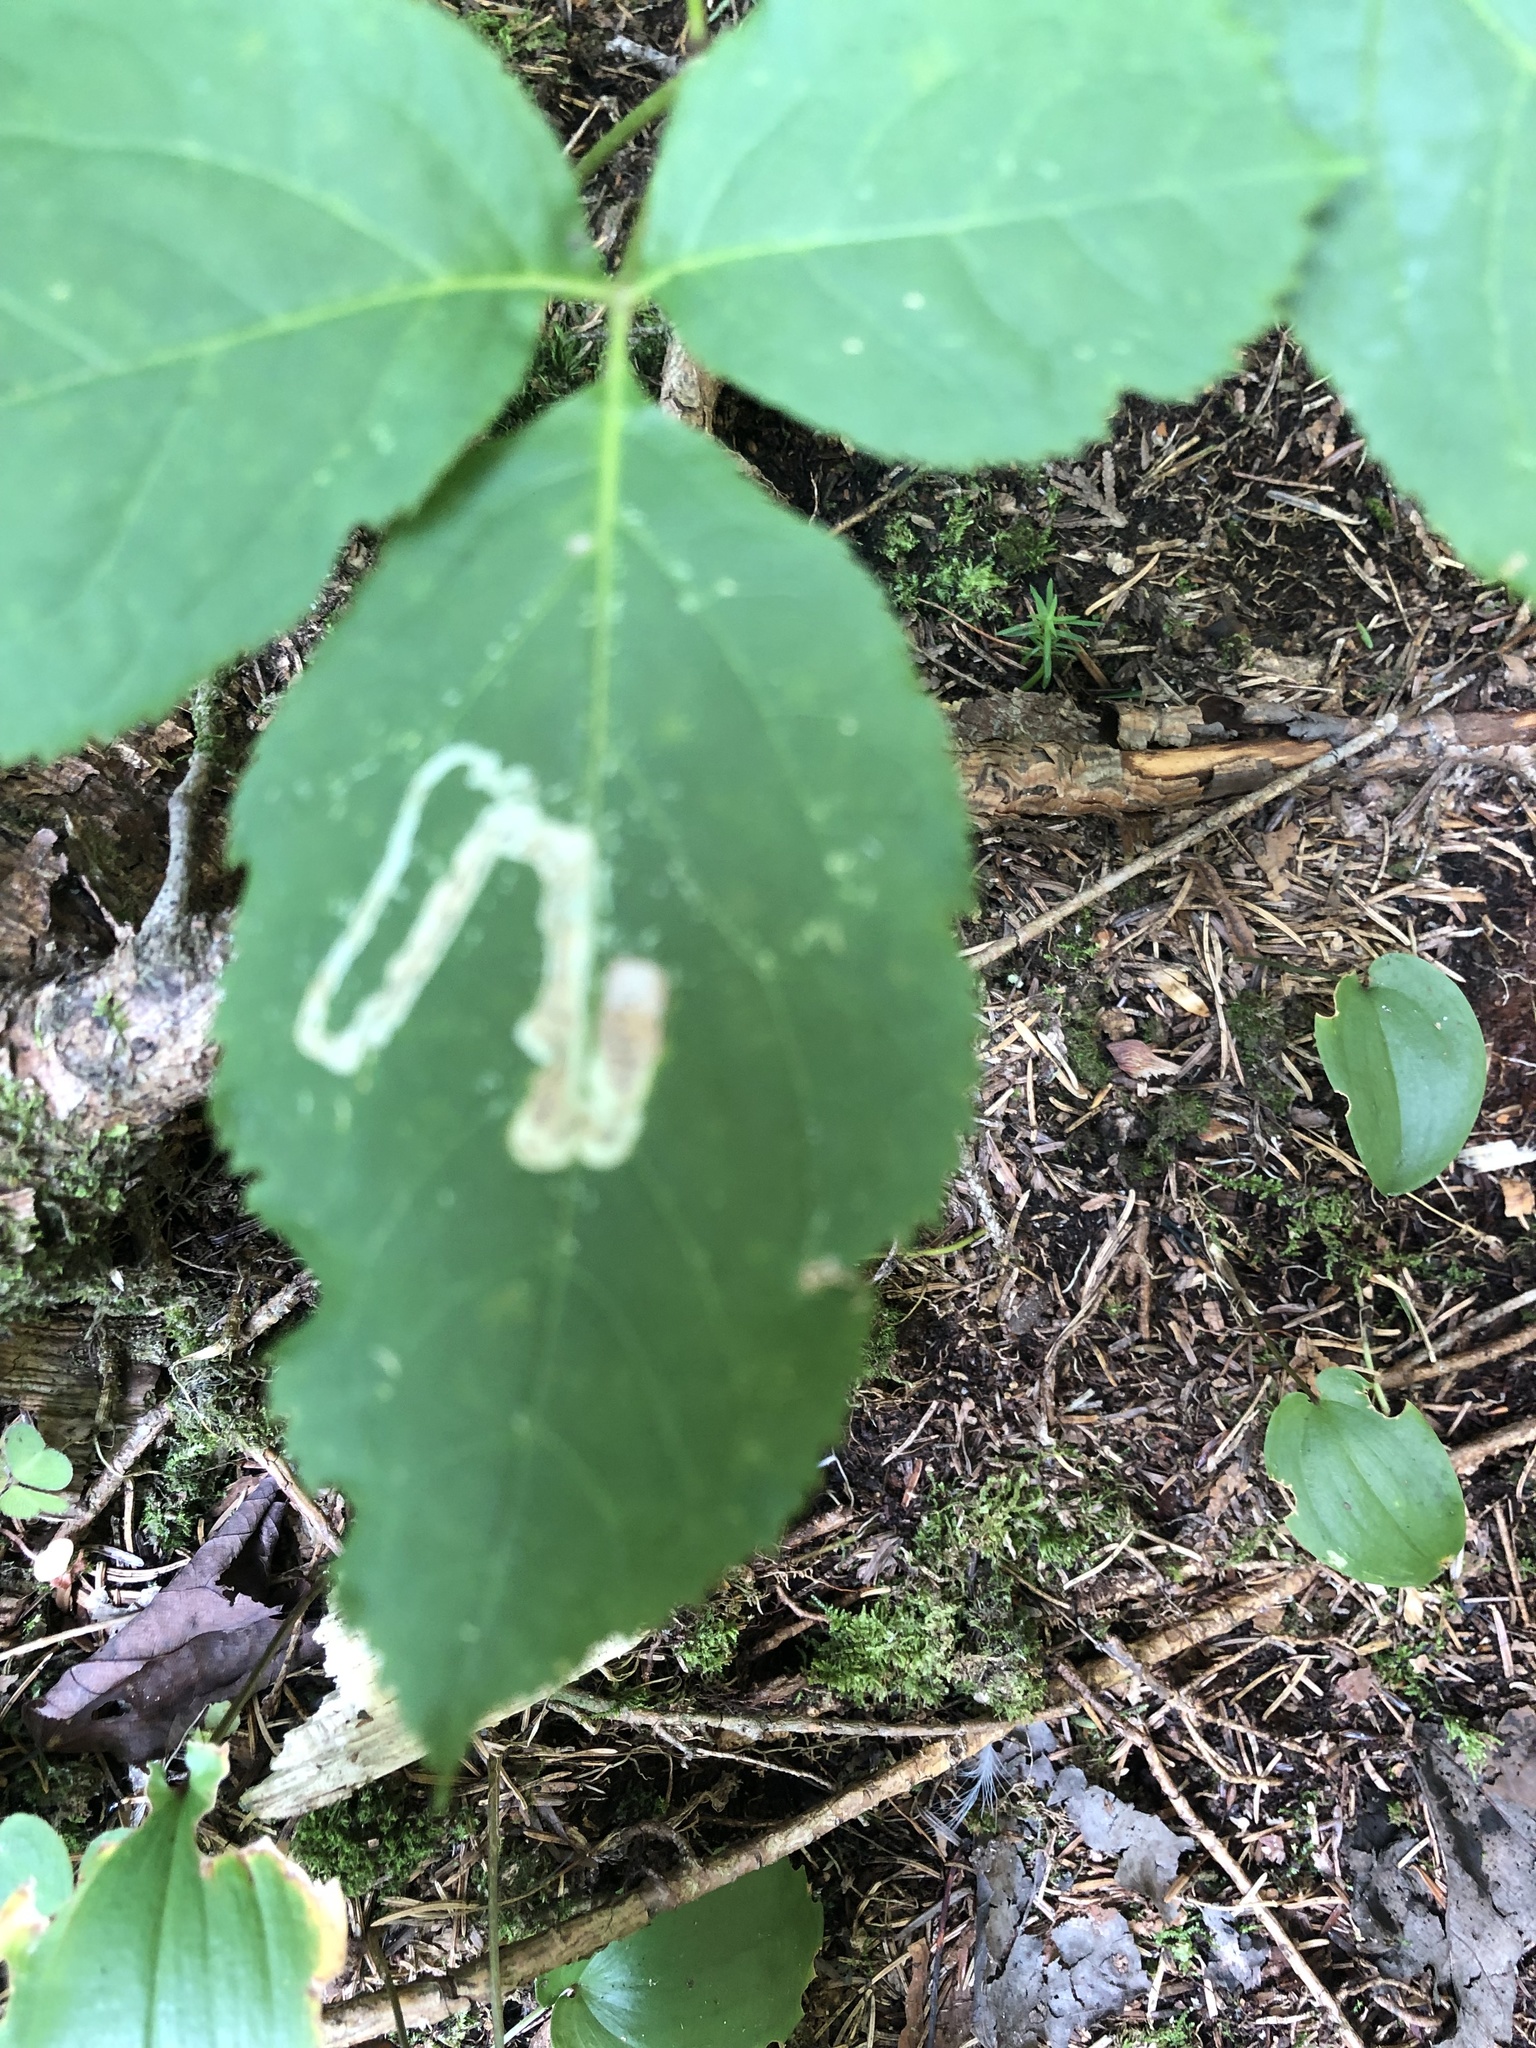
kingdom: Animalia
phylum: Arthropoda
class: Insecta
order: Diptera
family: Agromyzidae
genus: Phytomyza
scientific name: Phytomyza aralivora
